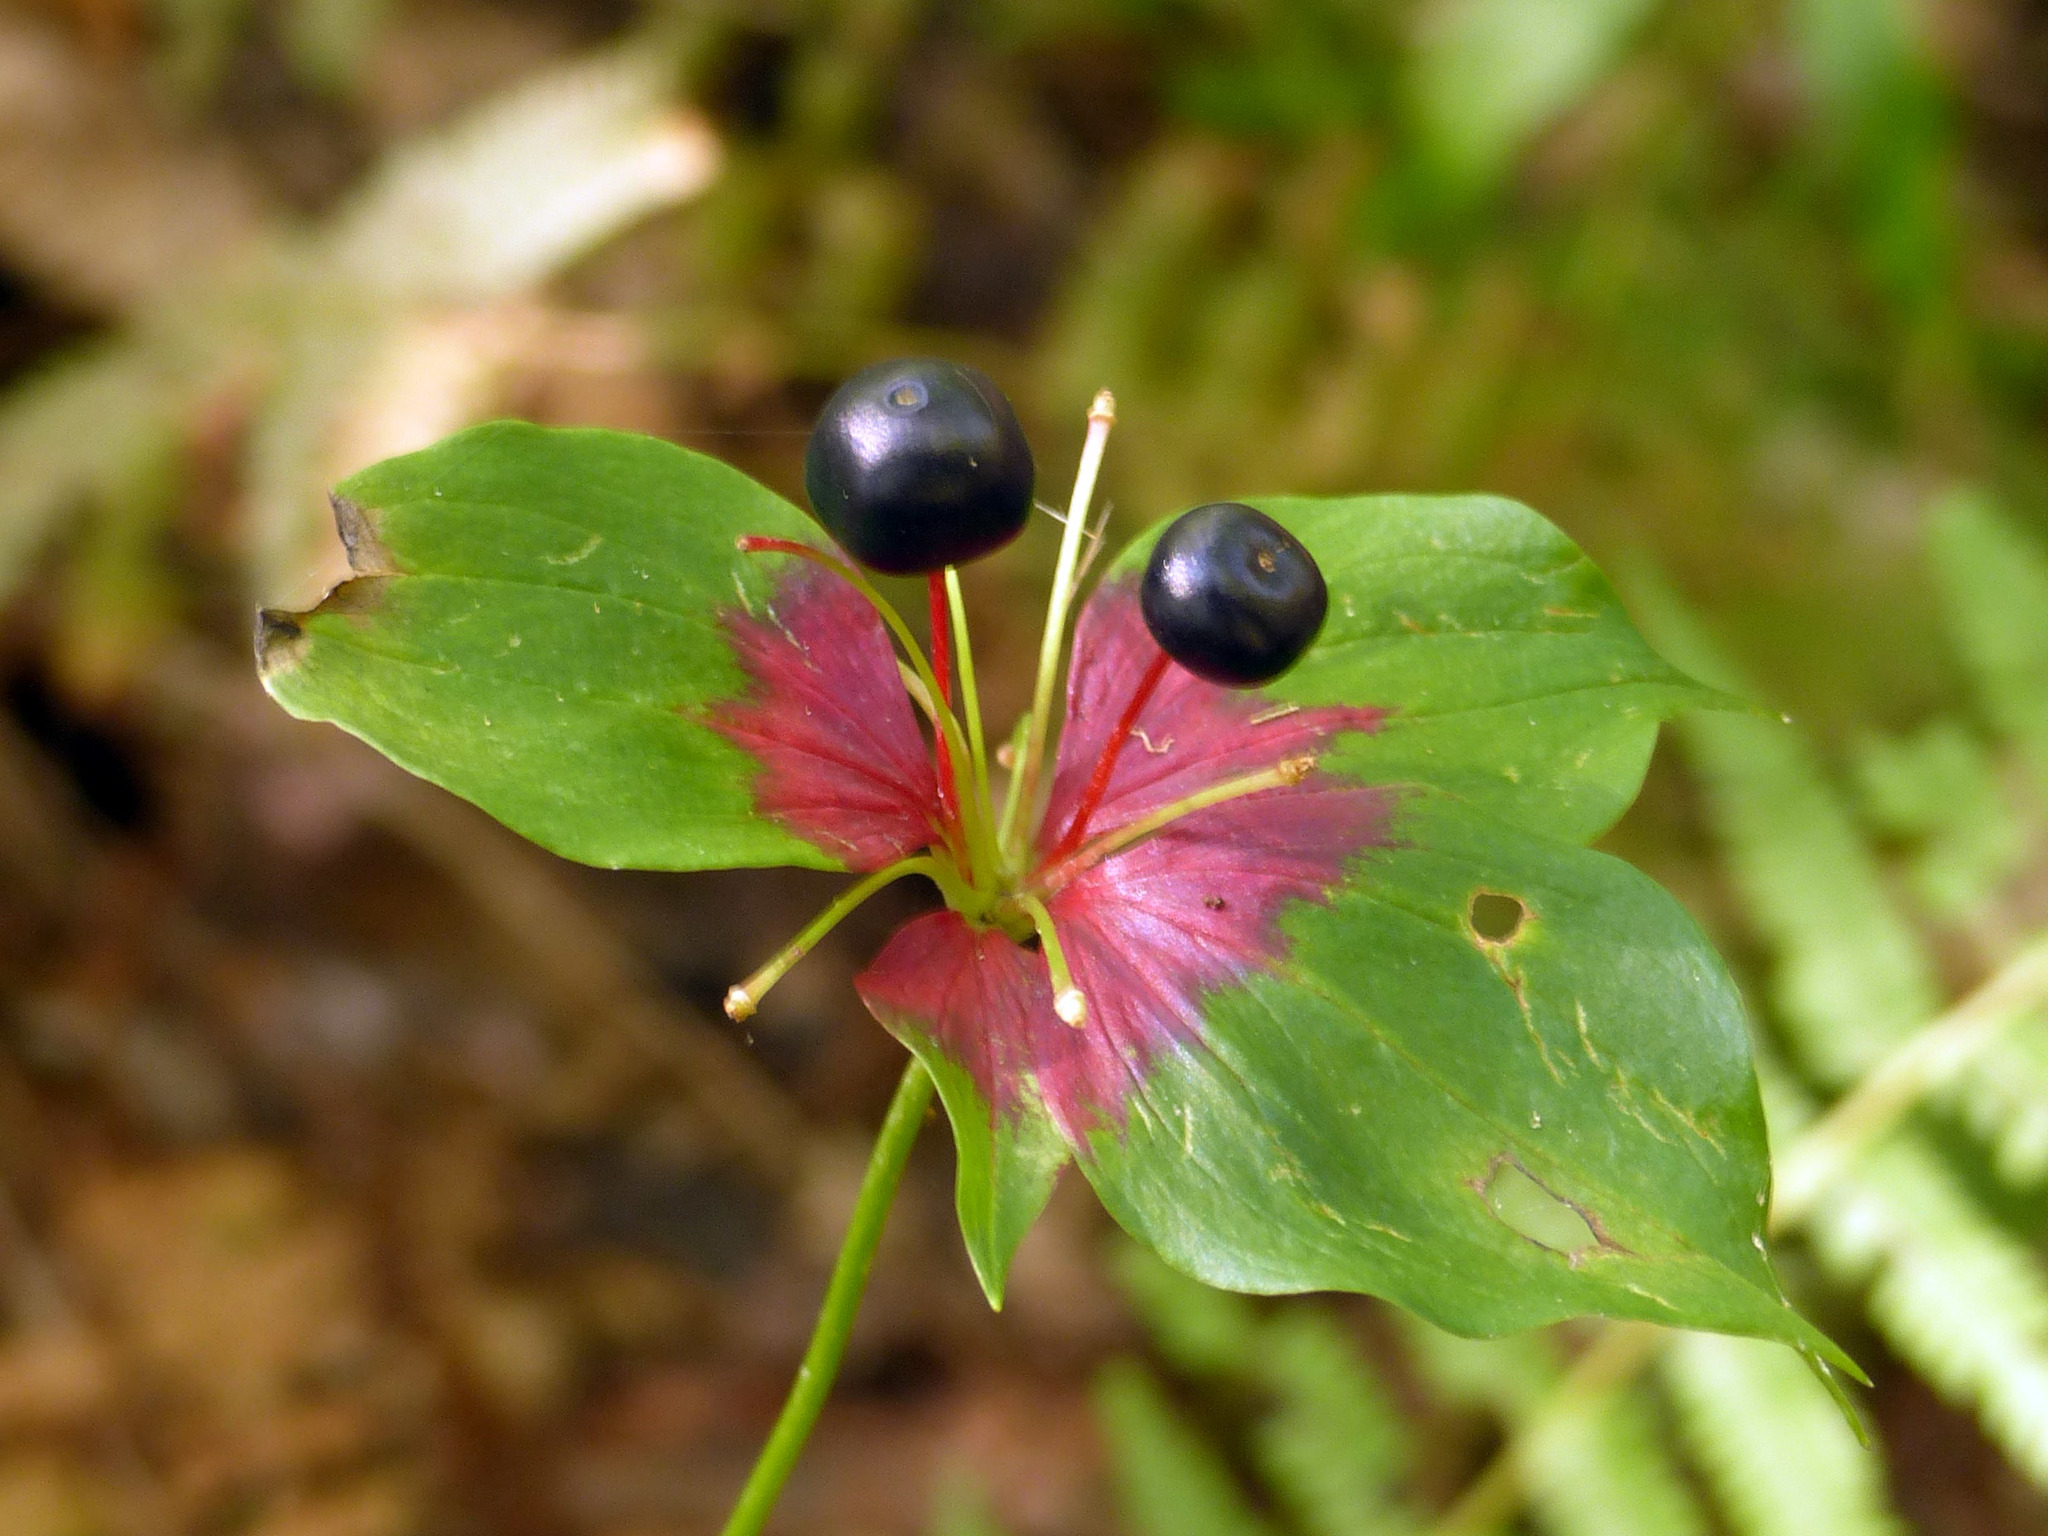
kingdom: Plantae
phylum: Tracheophyta
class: Liliopsida
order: Liliales
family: Liliaceae
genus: Medeola
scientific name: Medeola virginiana
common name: Indian cucumber-root
